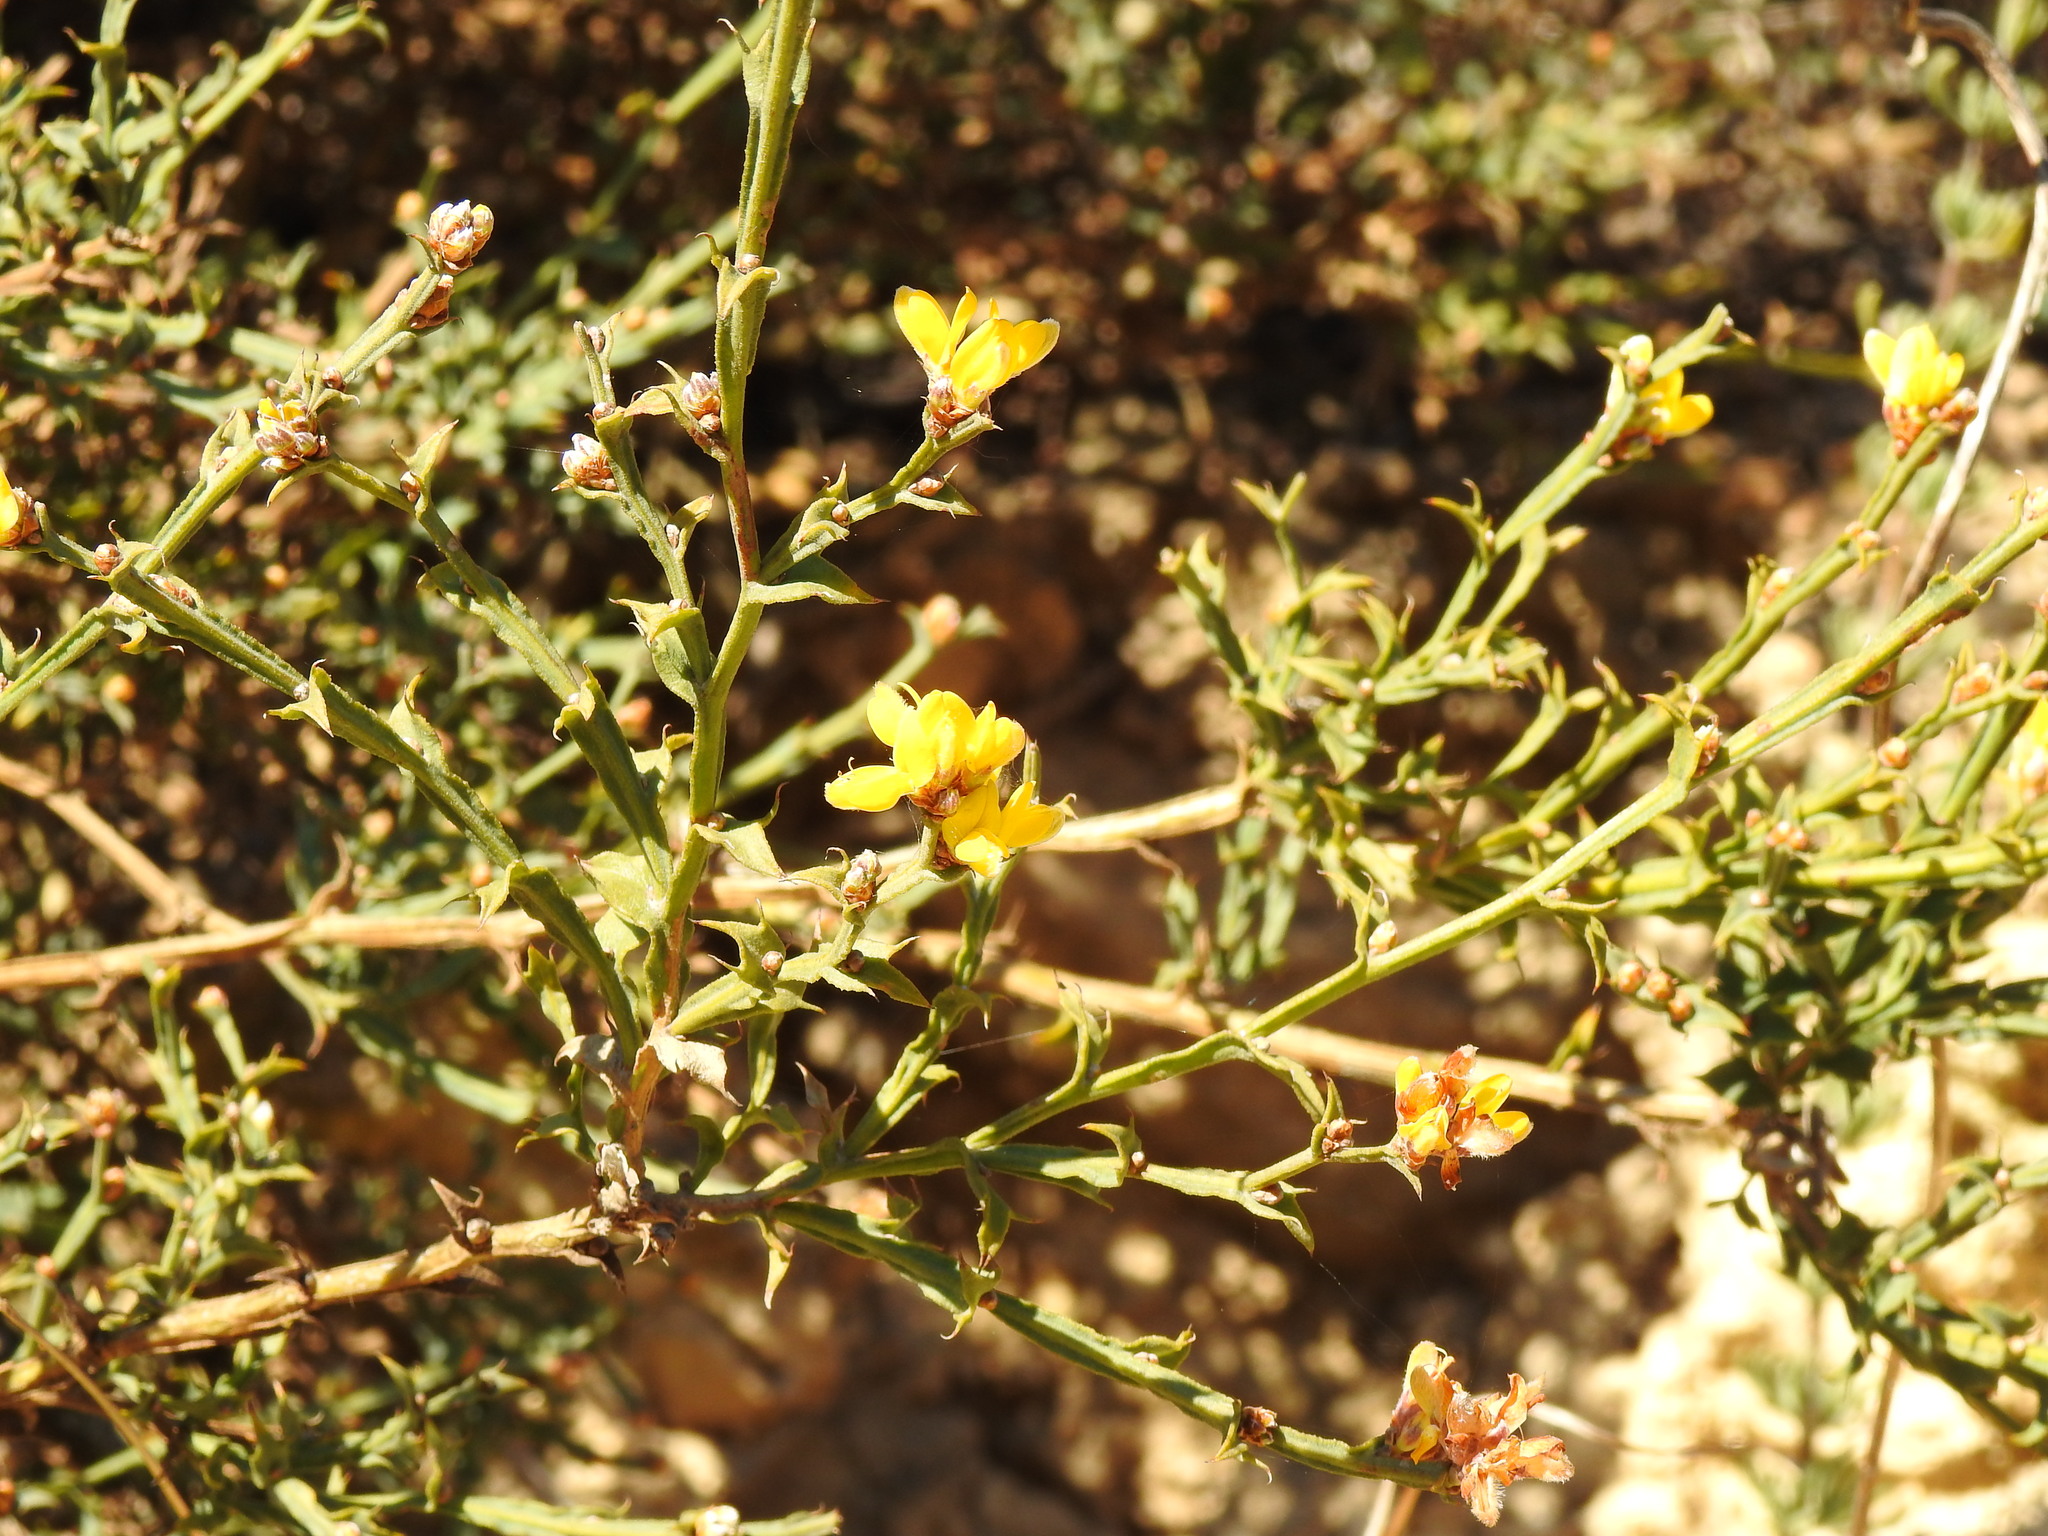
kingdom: Plantae
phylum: Tracheophyta
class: Magnoliopsida
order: Fabales
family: Fabaceae
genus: Genista
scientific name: Genista tridentata
